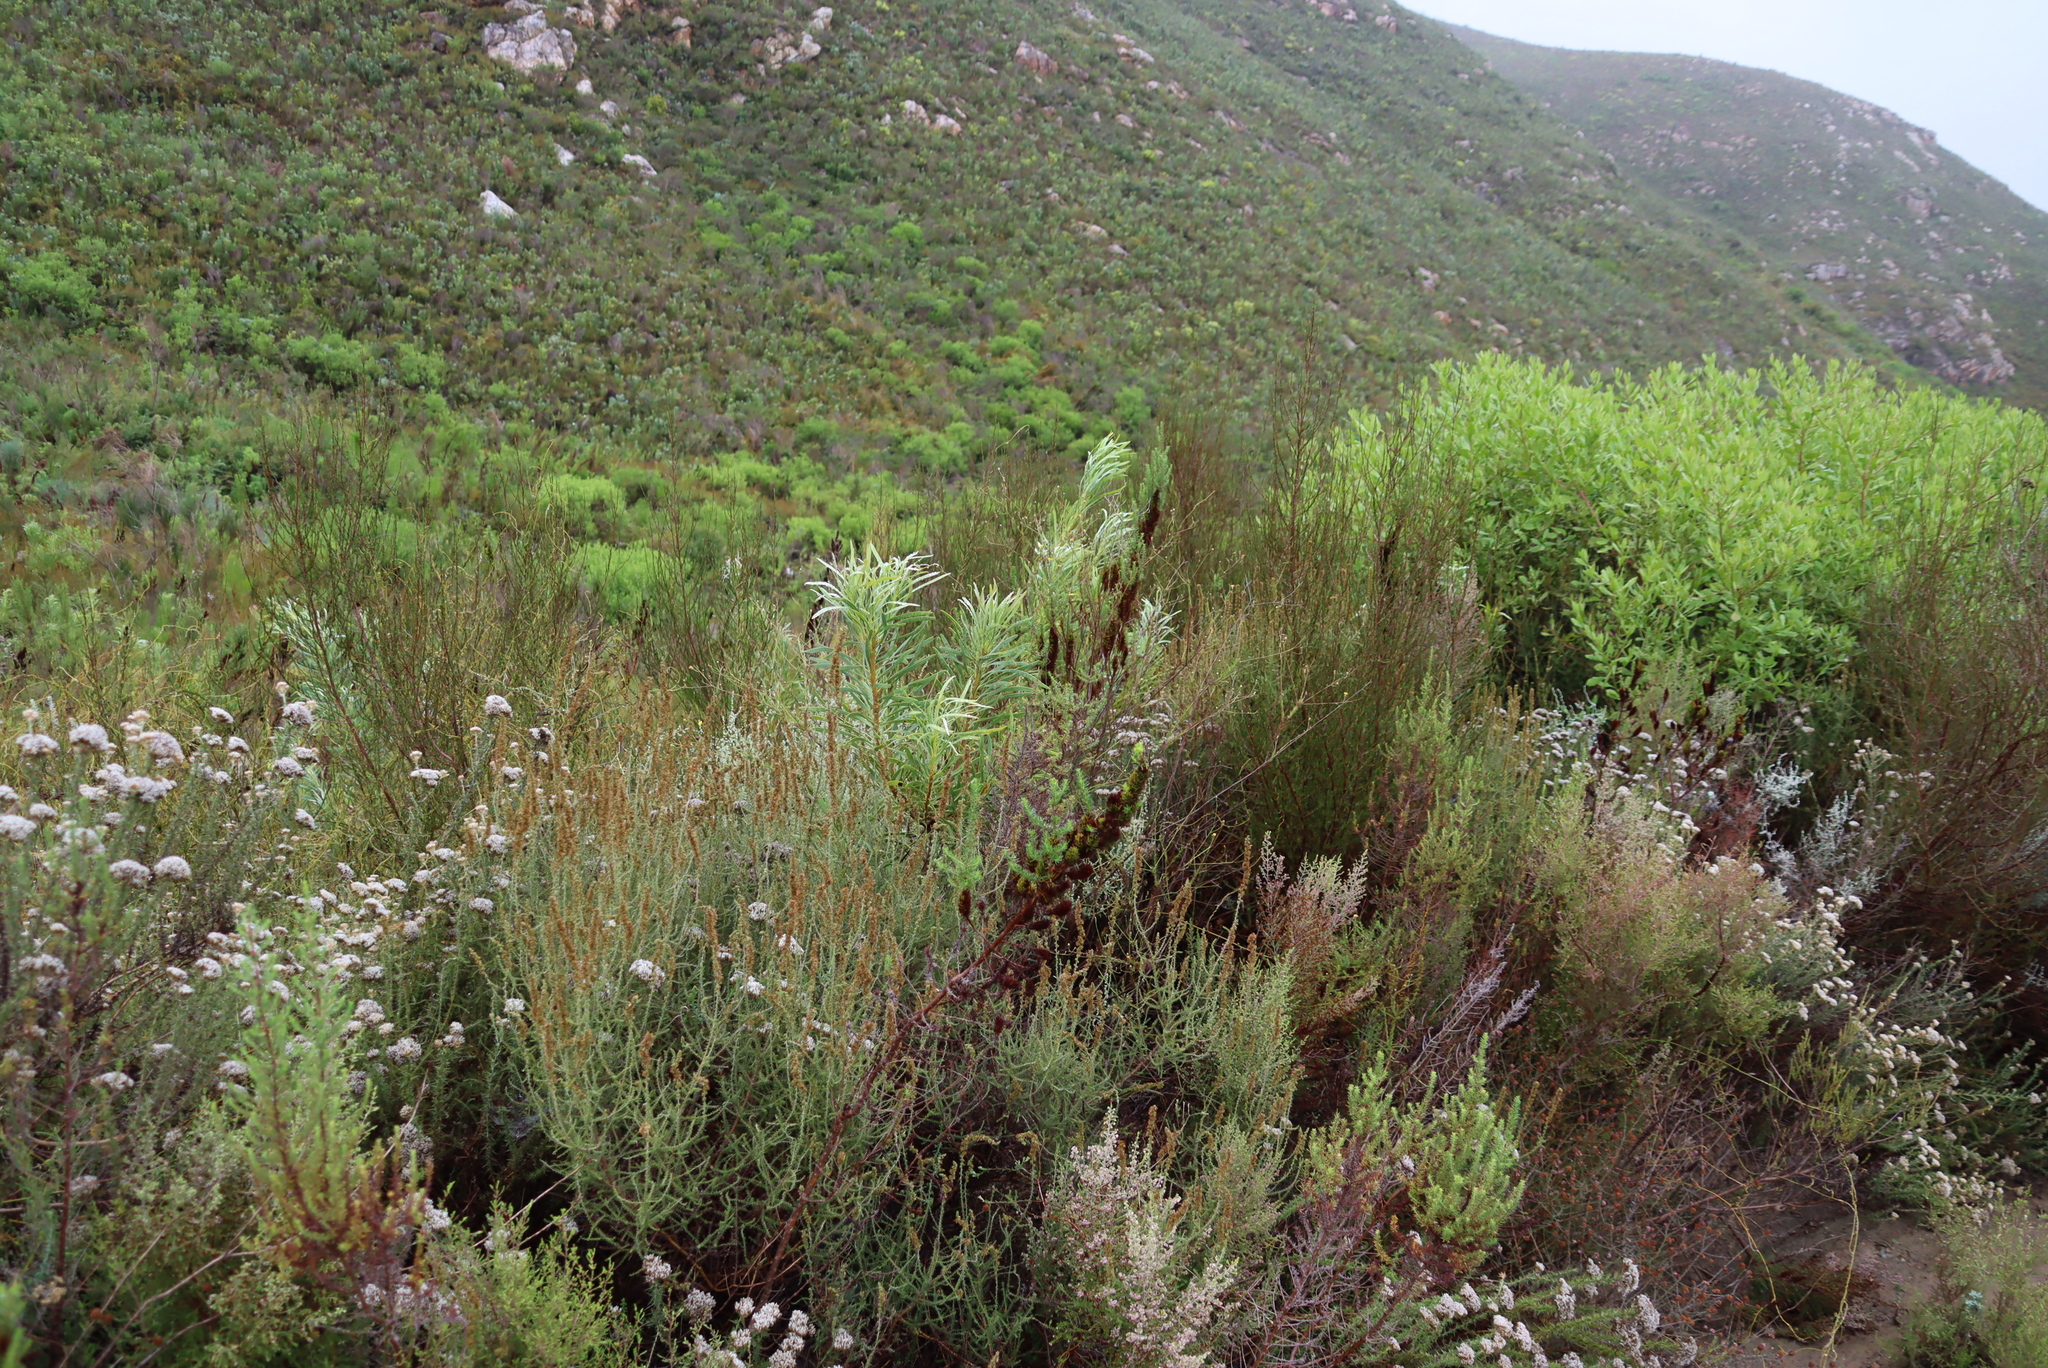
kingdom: Plantae
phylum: Tracheophyta
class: Magnoliopsida
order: Asterales
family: Asteraceae
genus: Seriphium
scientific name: Seriphium cinereum
